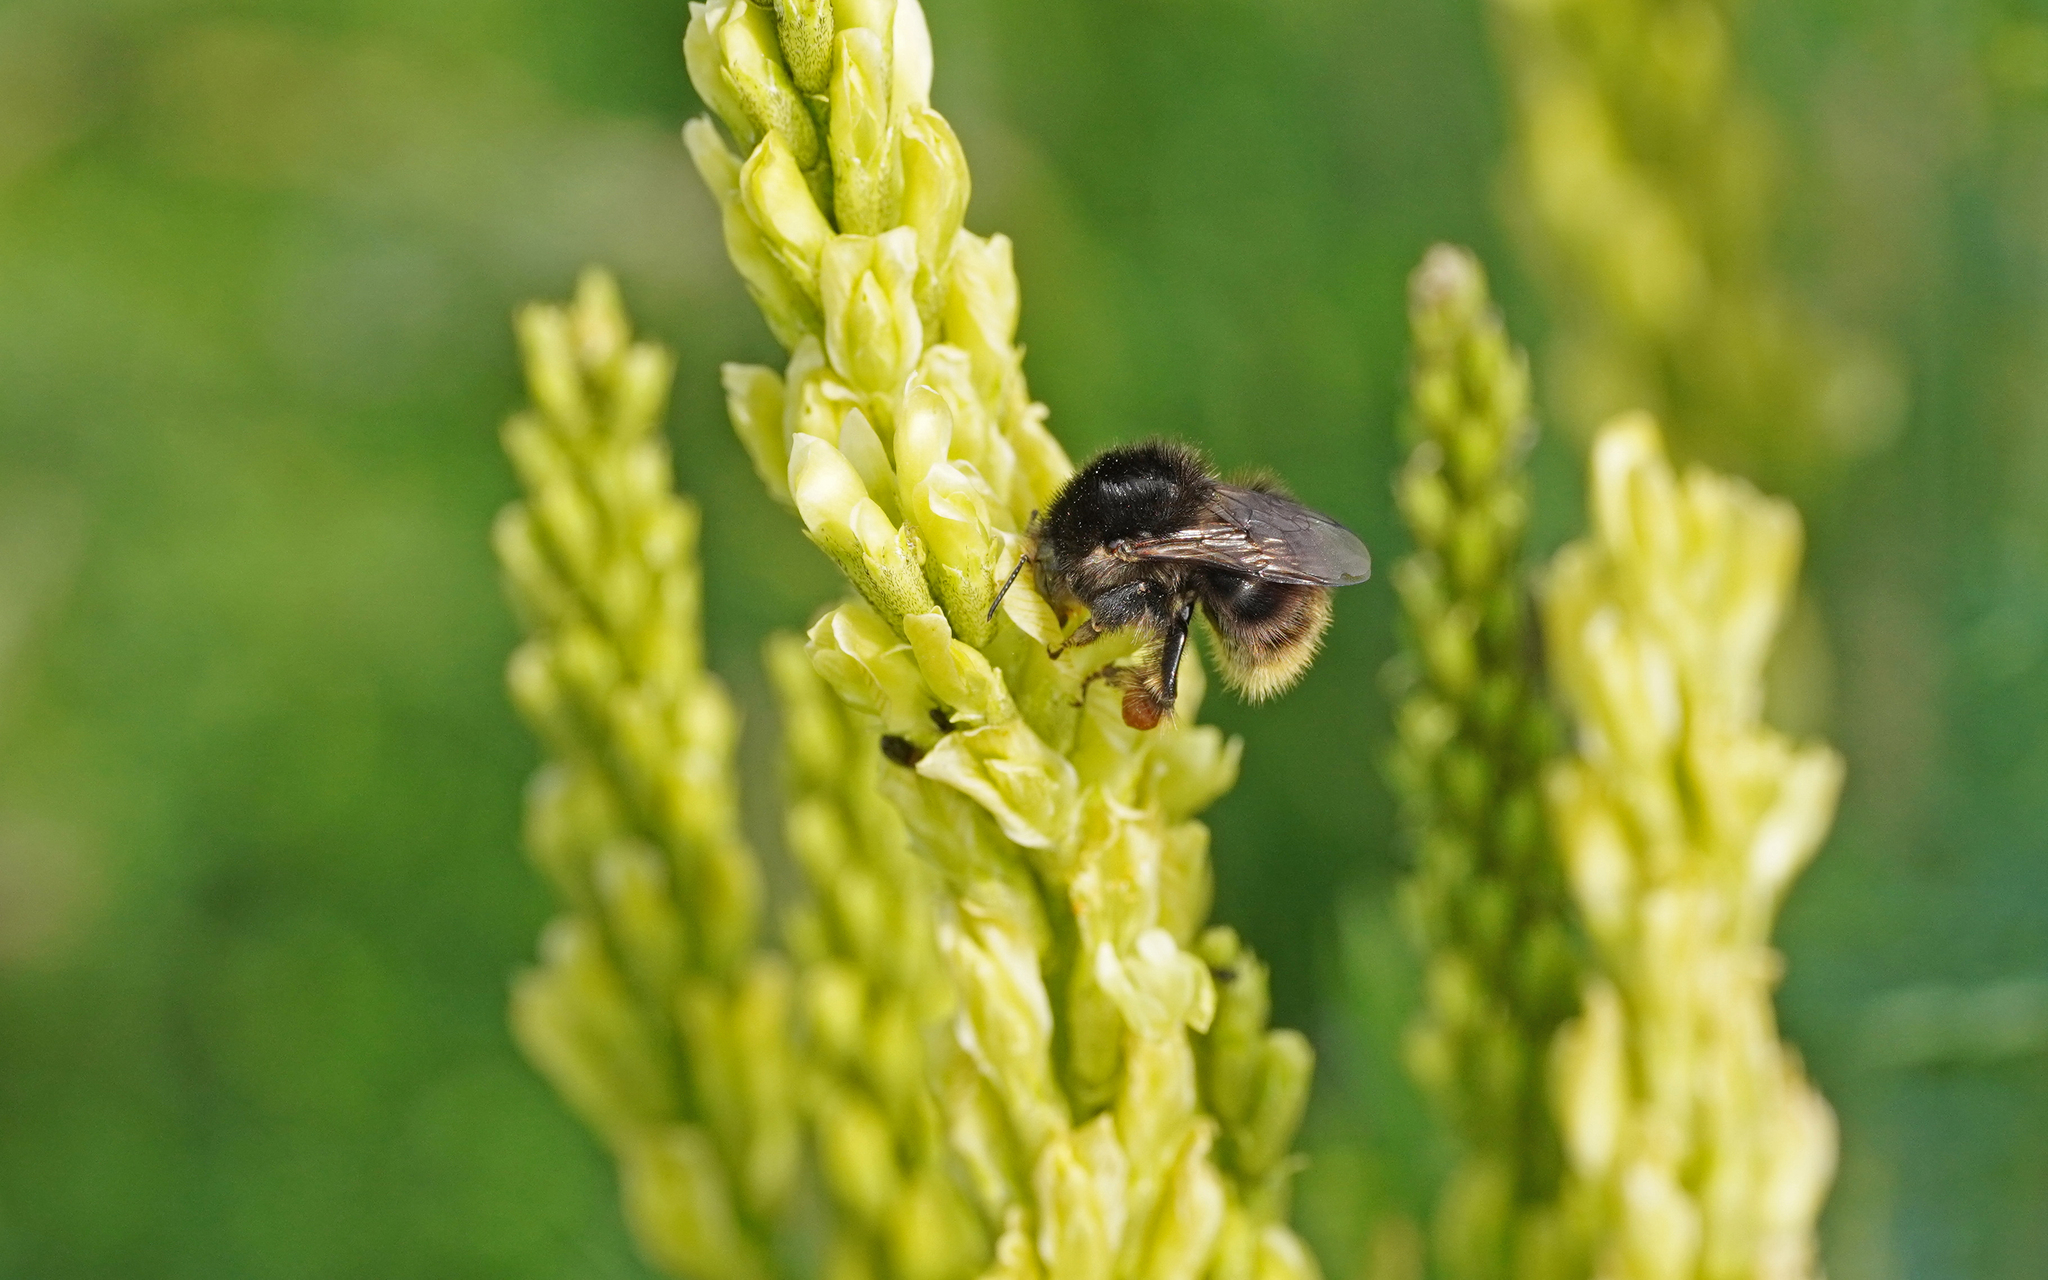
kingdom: Animalia
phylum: Arthropoda
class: Insecta
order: Hymenoptera
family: Apidae
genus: Bombus
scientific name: Bombus humilis
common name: Brown-banded carder-bee
